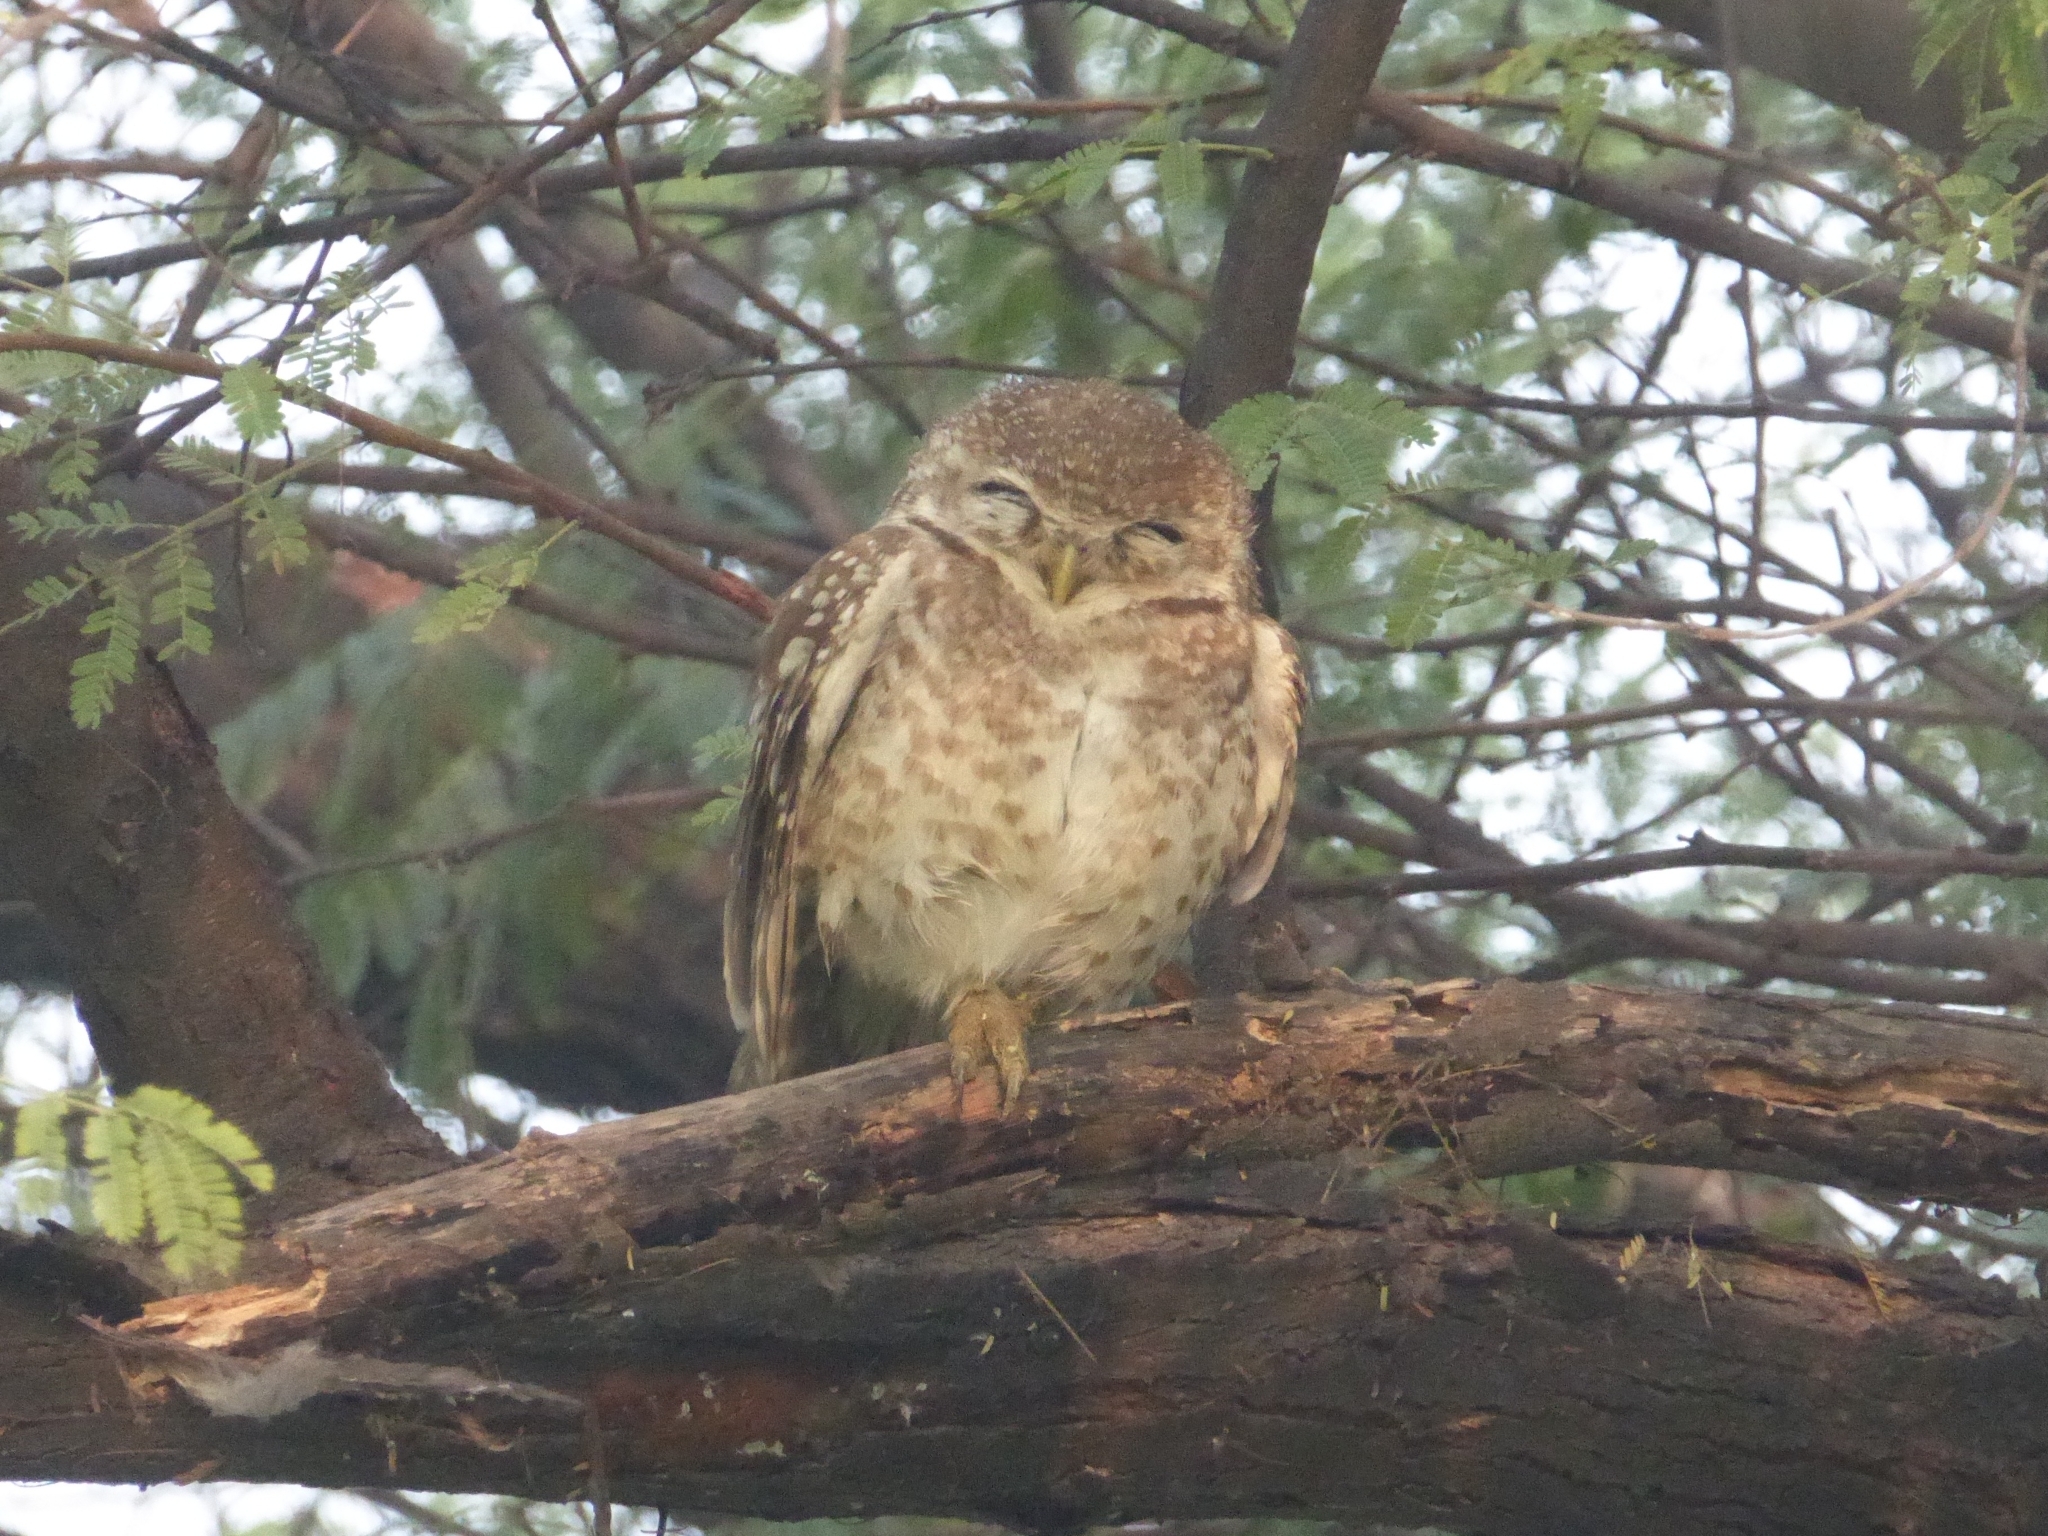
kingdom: Animalia
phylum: Chordata
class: Aves
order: Strigiformes
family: Strigidae
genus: Athene
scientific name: Athene brama
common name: Spotted owlet
